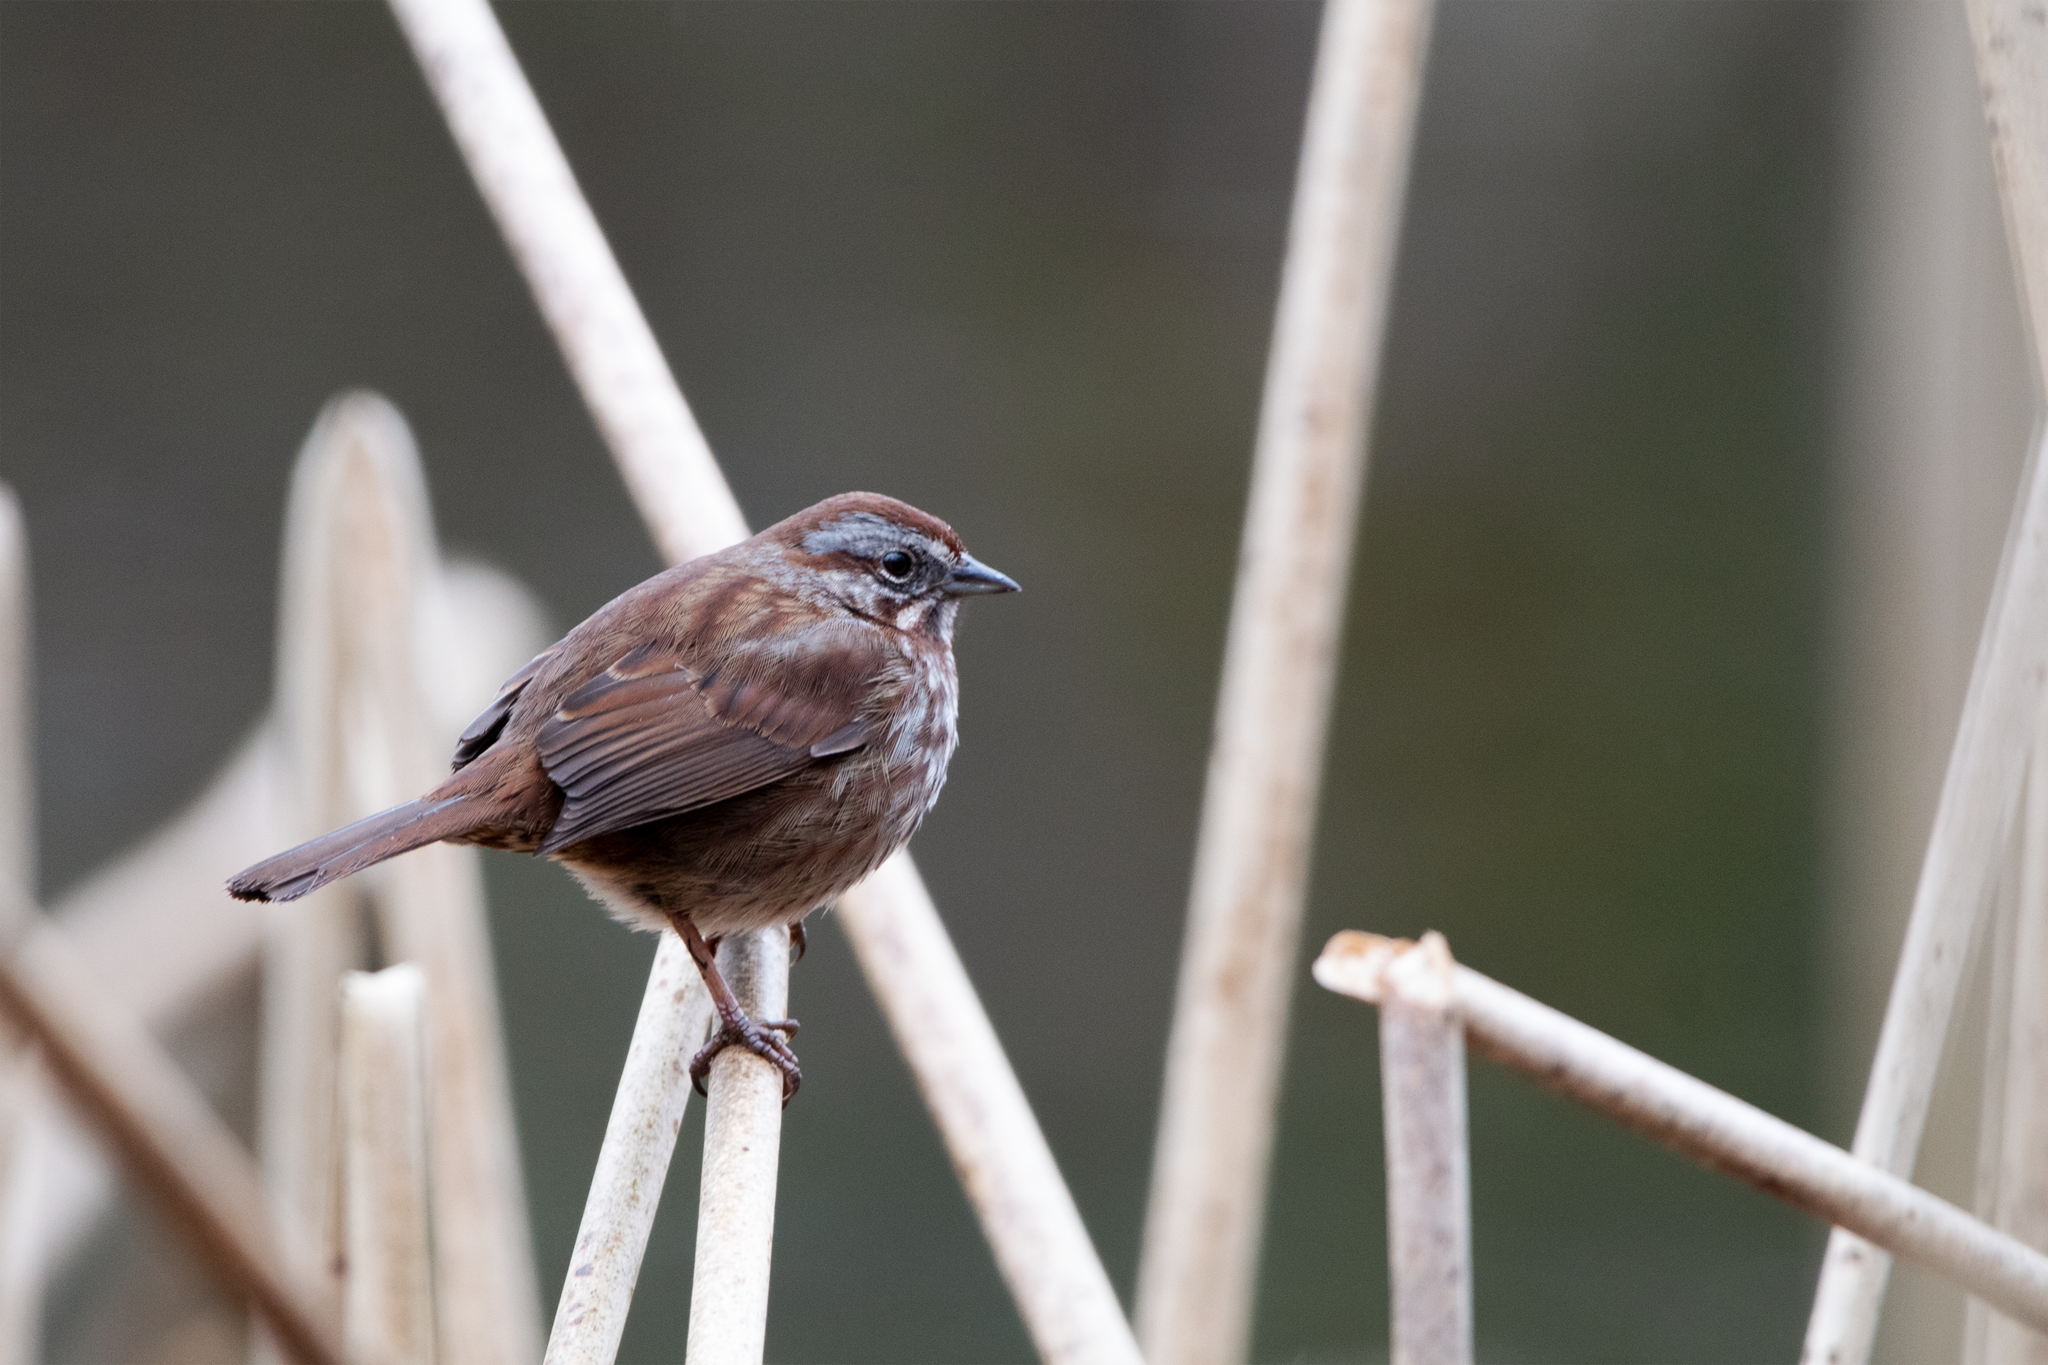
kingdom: Animalia
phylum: Chordata
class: Aves
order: Passeriformes
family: Passerellidae
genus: Melospiza
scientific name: Melospiza melodia
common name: Song sparrow
